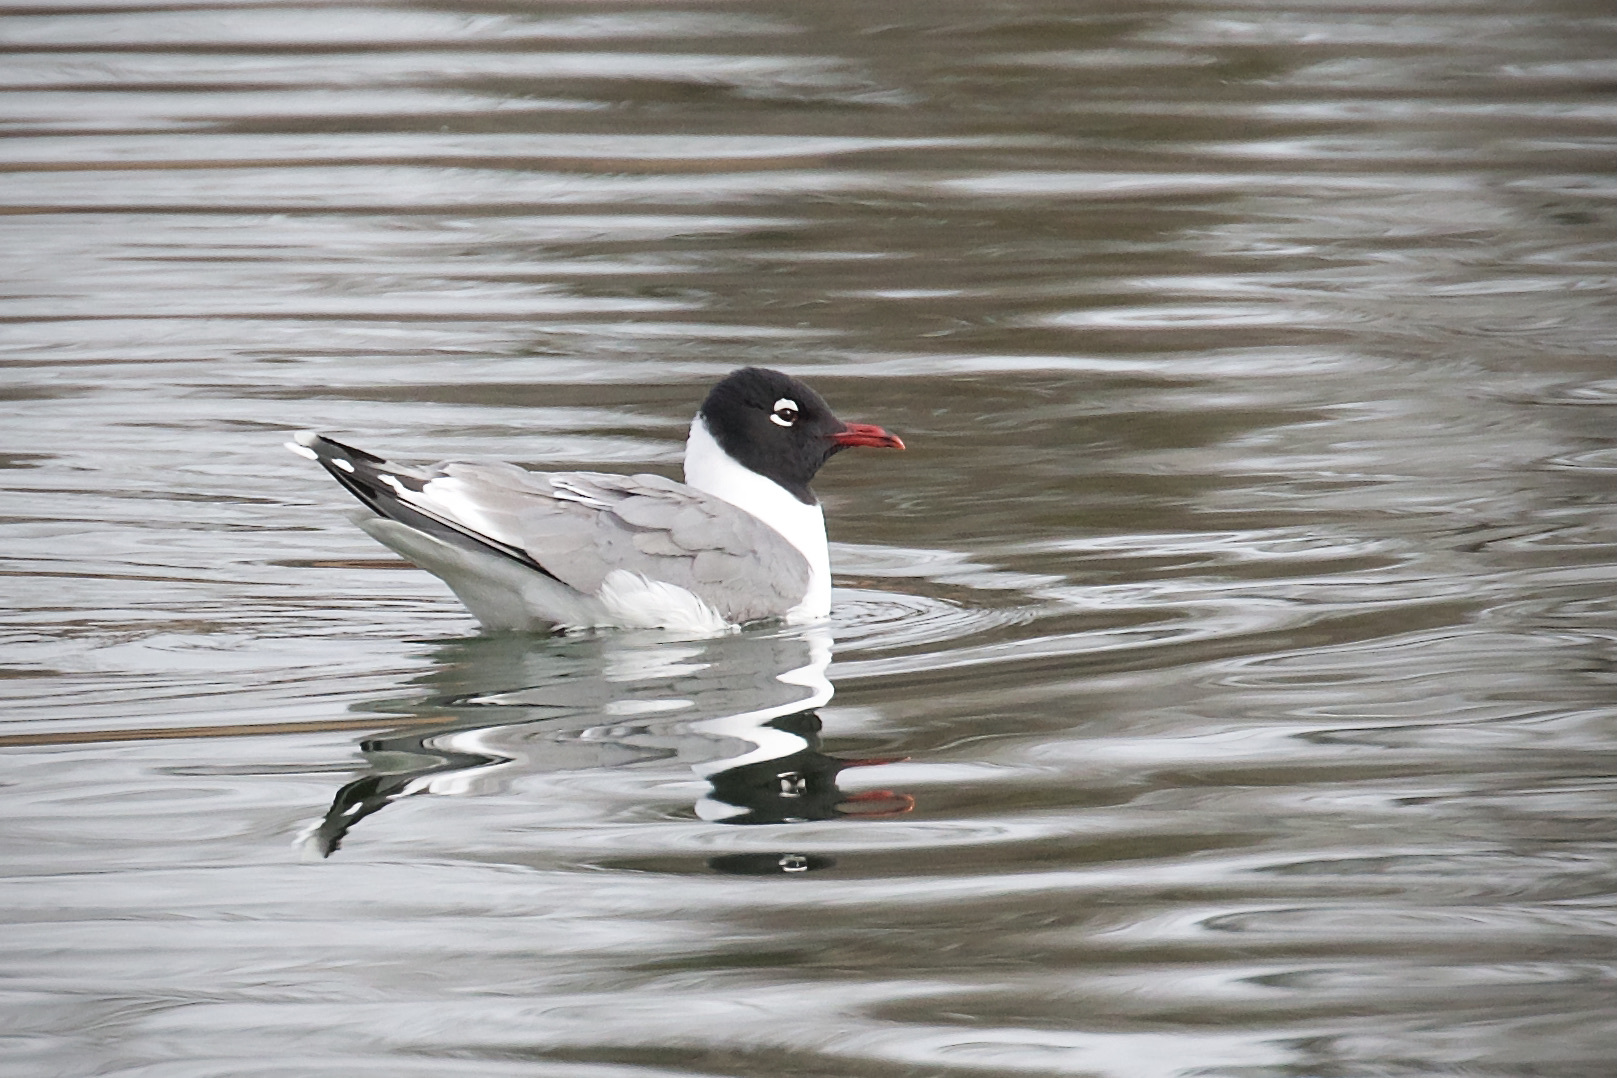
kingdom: Animalia
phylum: Chordata
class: Aves
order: Charadriiformes
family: Laridae
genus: Leucophaeus
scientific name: Leucophaeus pipixcan
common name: Franklin's gull
